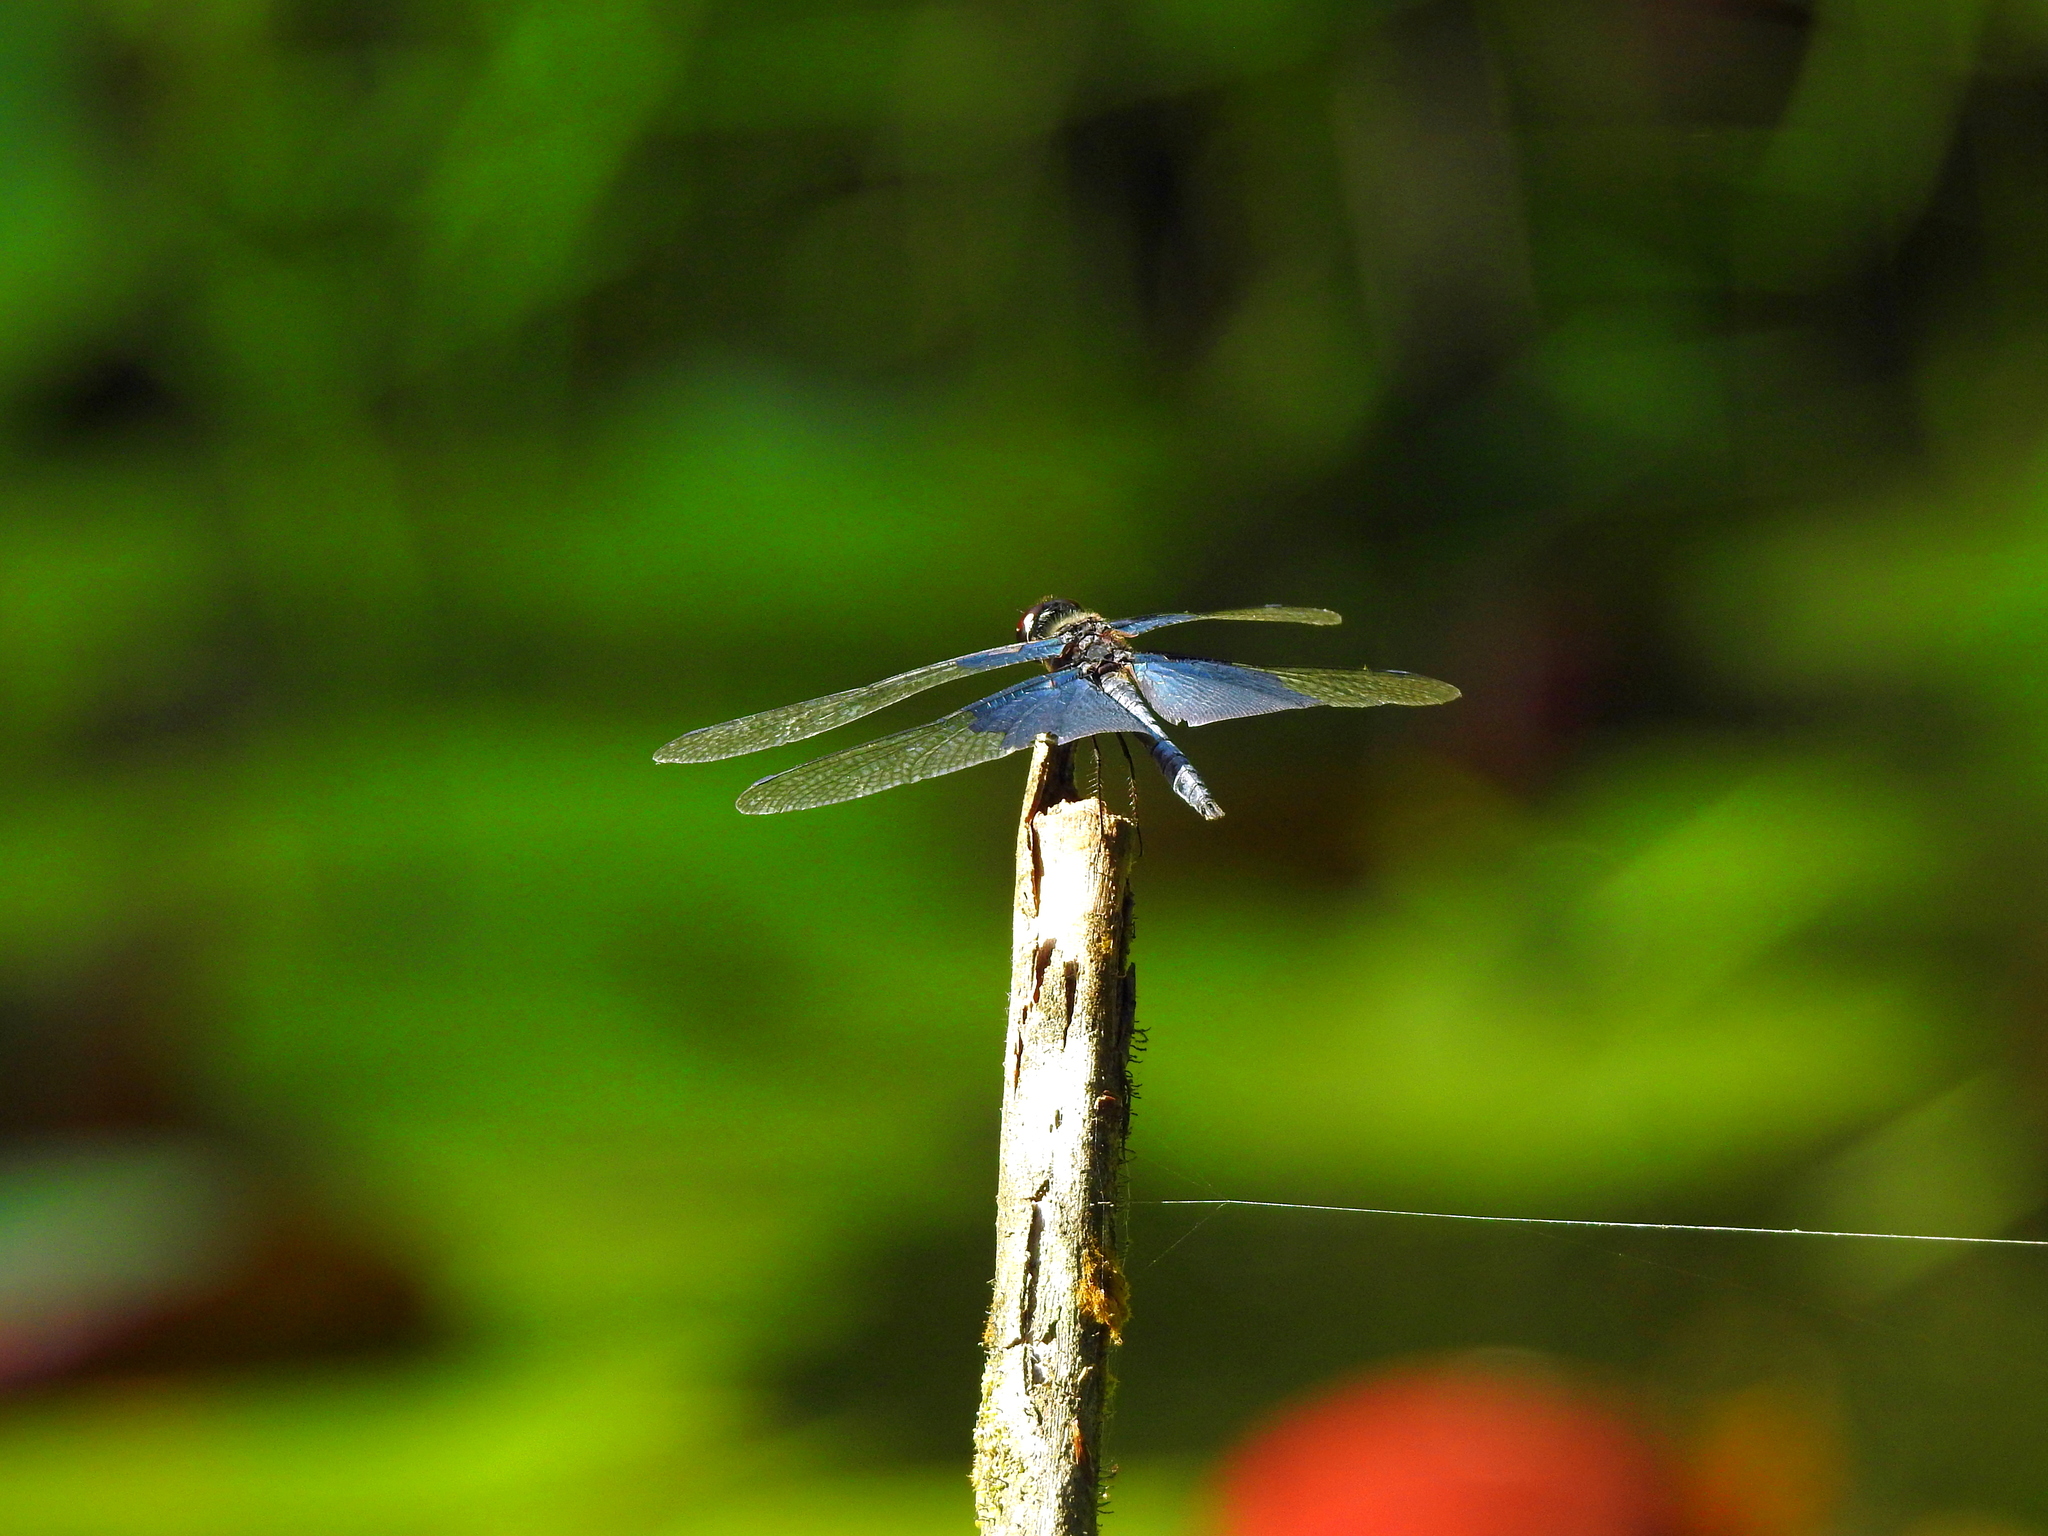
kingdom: Animalia
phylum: Arthropoda
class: Insecta
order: Odonata
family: Libellulidae
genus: Rhyothemis
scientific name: Rhyothemis triangularis
